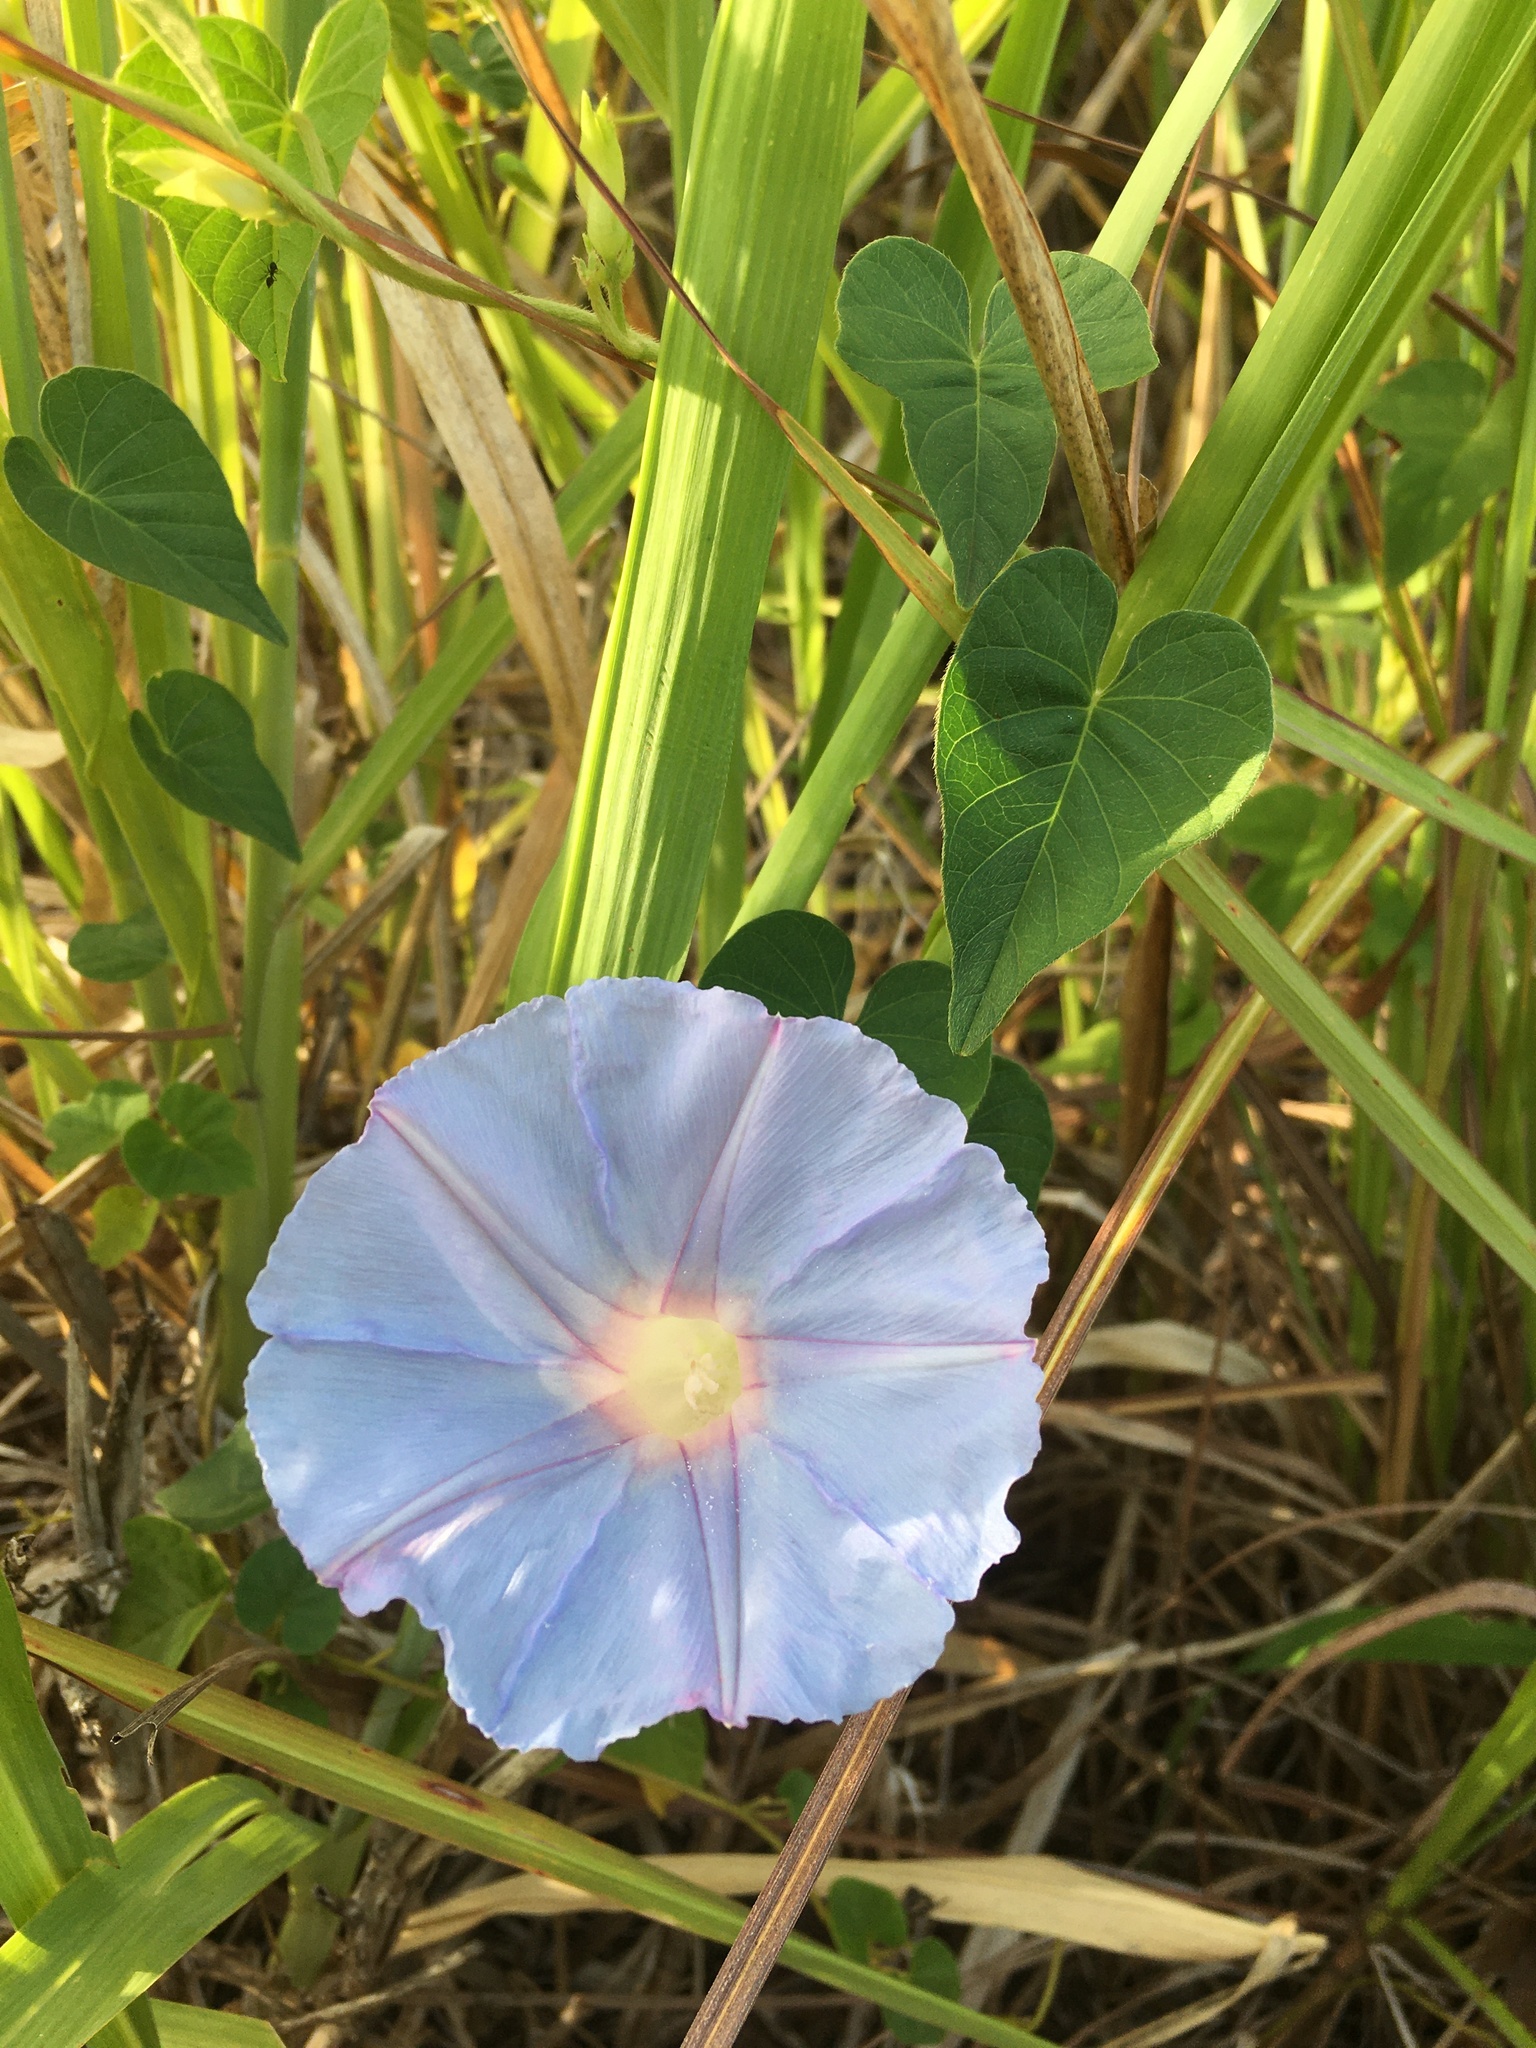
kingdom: Plantae
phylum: Tracheophyta
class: Magnoliopsida
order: Solanales
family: Convolvulaceae
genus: Ipomoea
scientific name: Ipomoea indica
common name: Blue dawnflower
